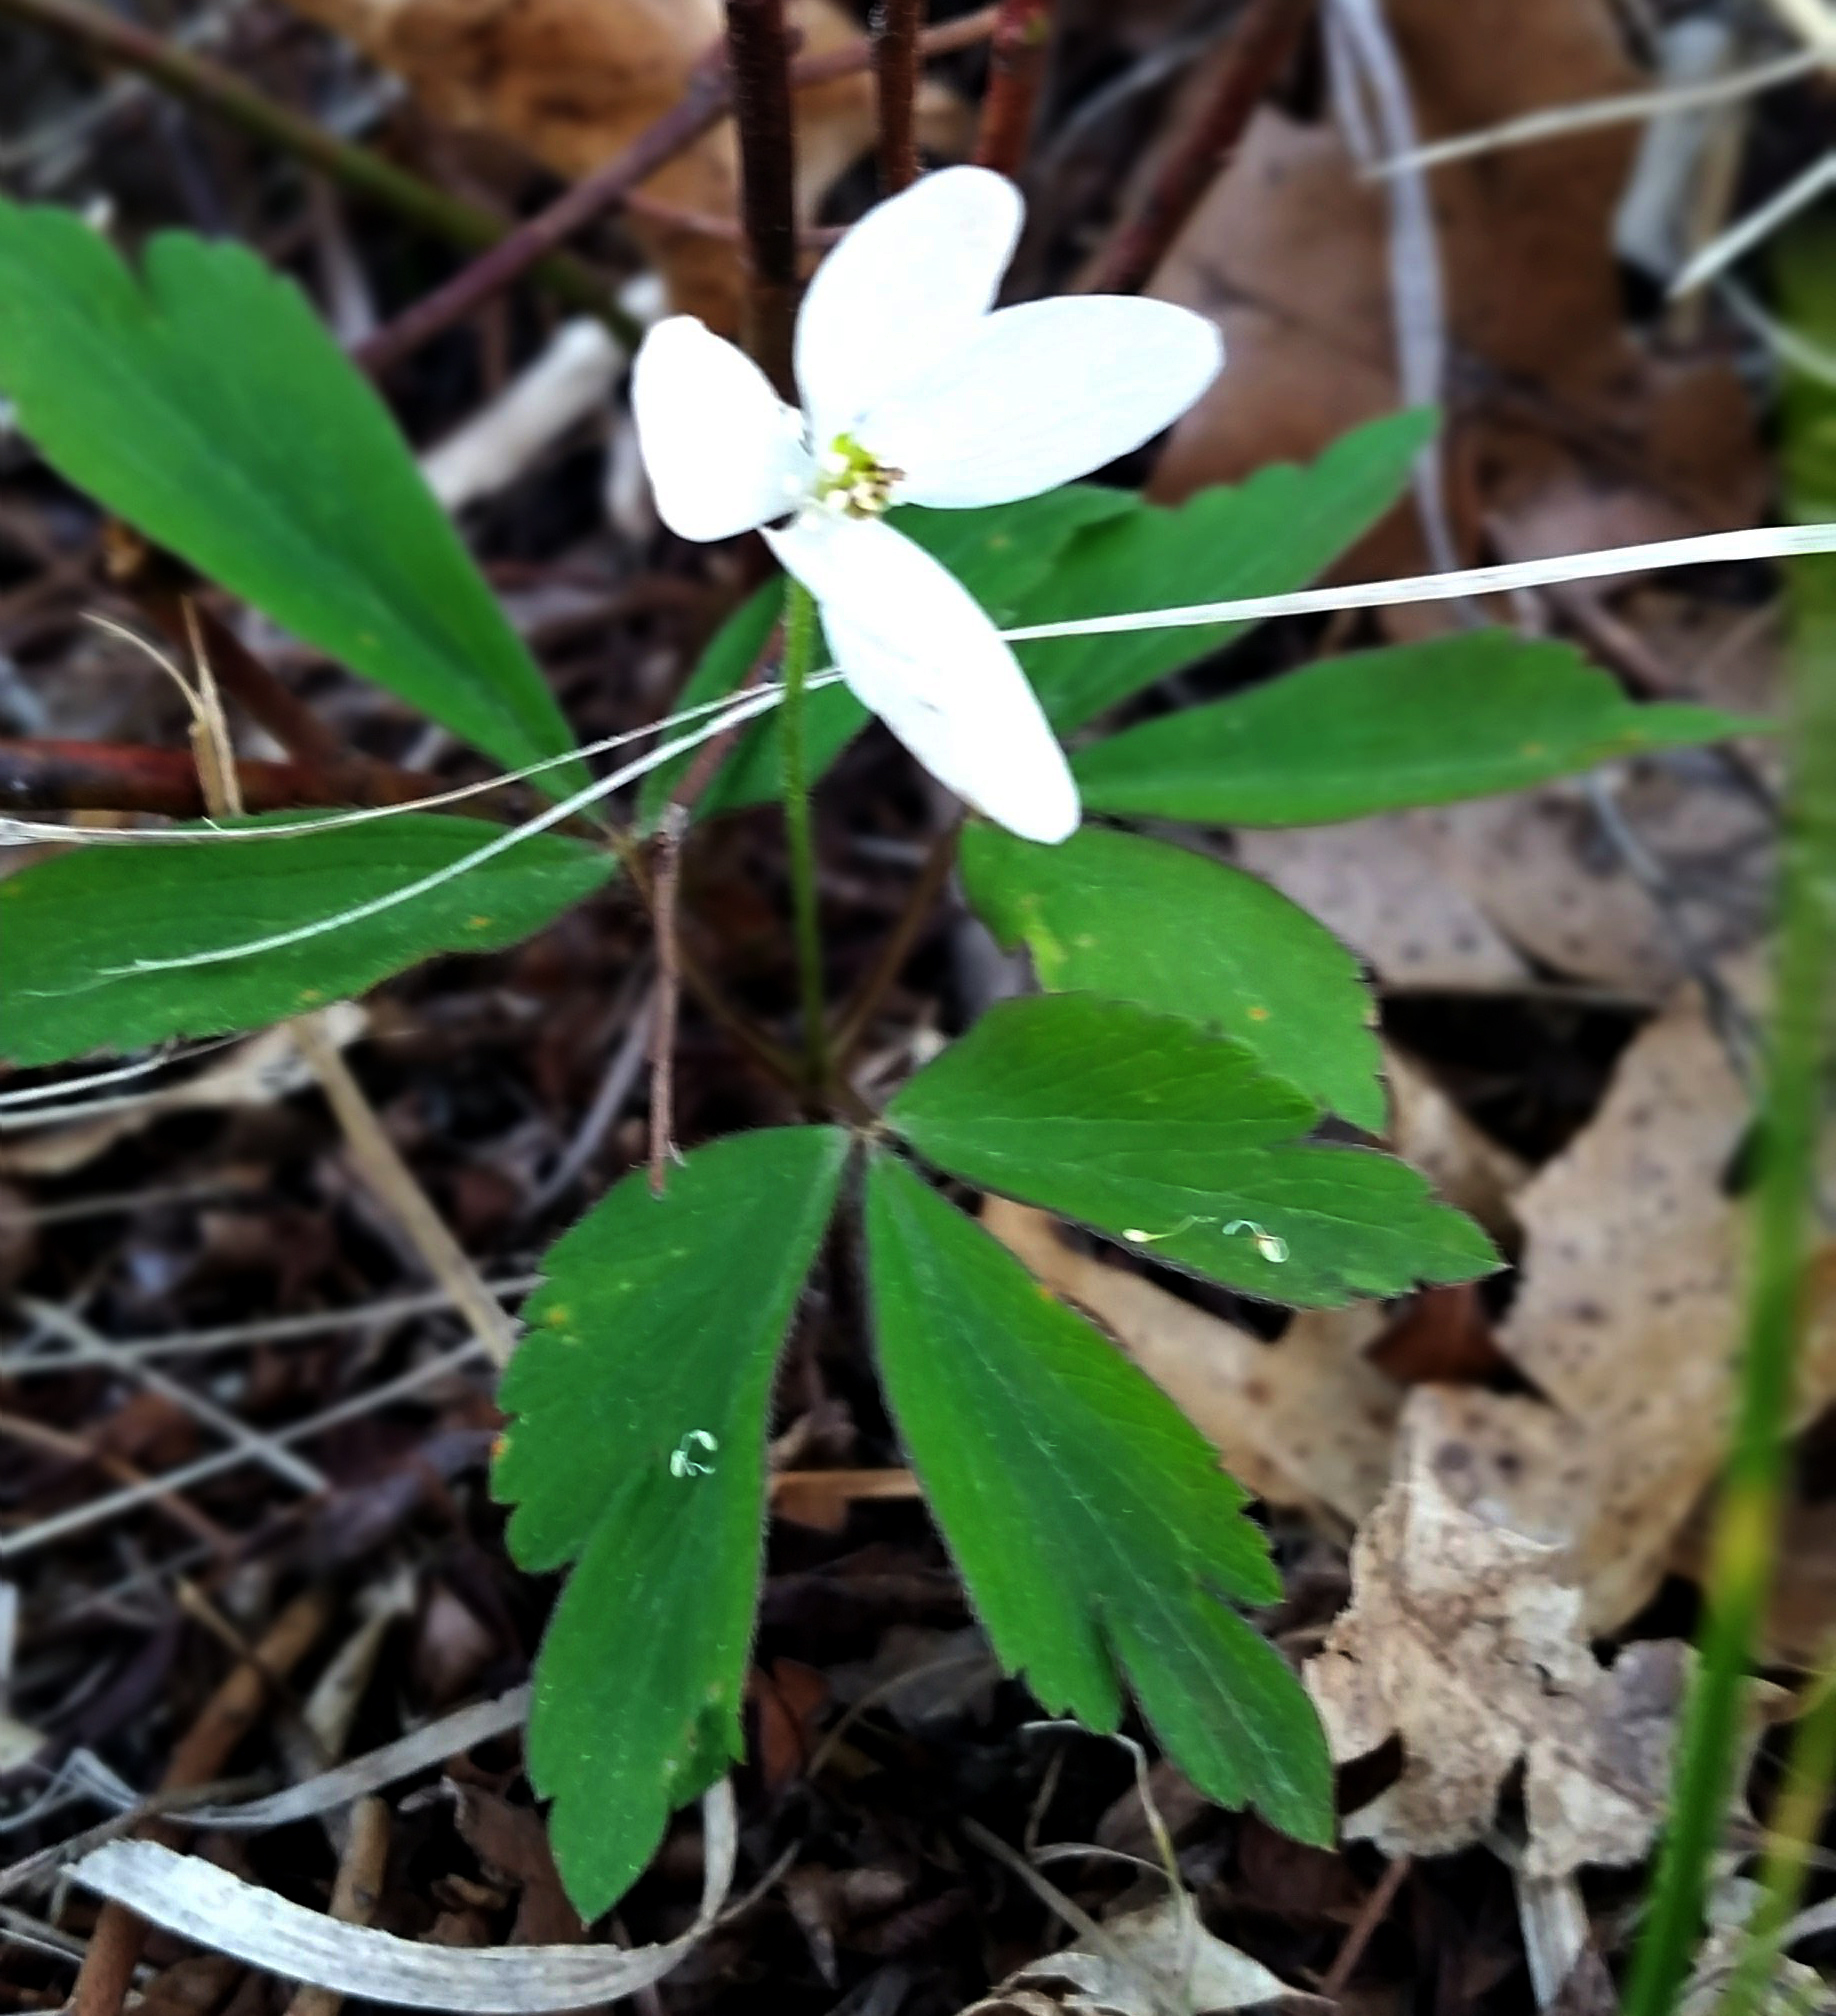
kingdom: Plantae
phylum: Tracheophyta
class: Magnoliopsida
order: Ranunculales
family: Ranunculaceae
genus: Anemone
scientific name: Anemone quinquefolia
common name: Wood anemone
